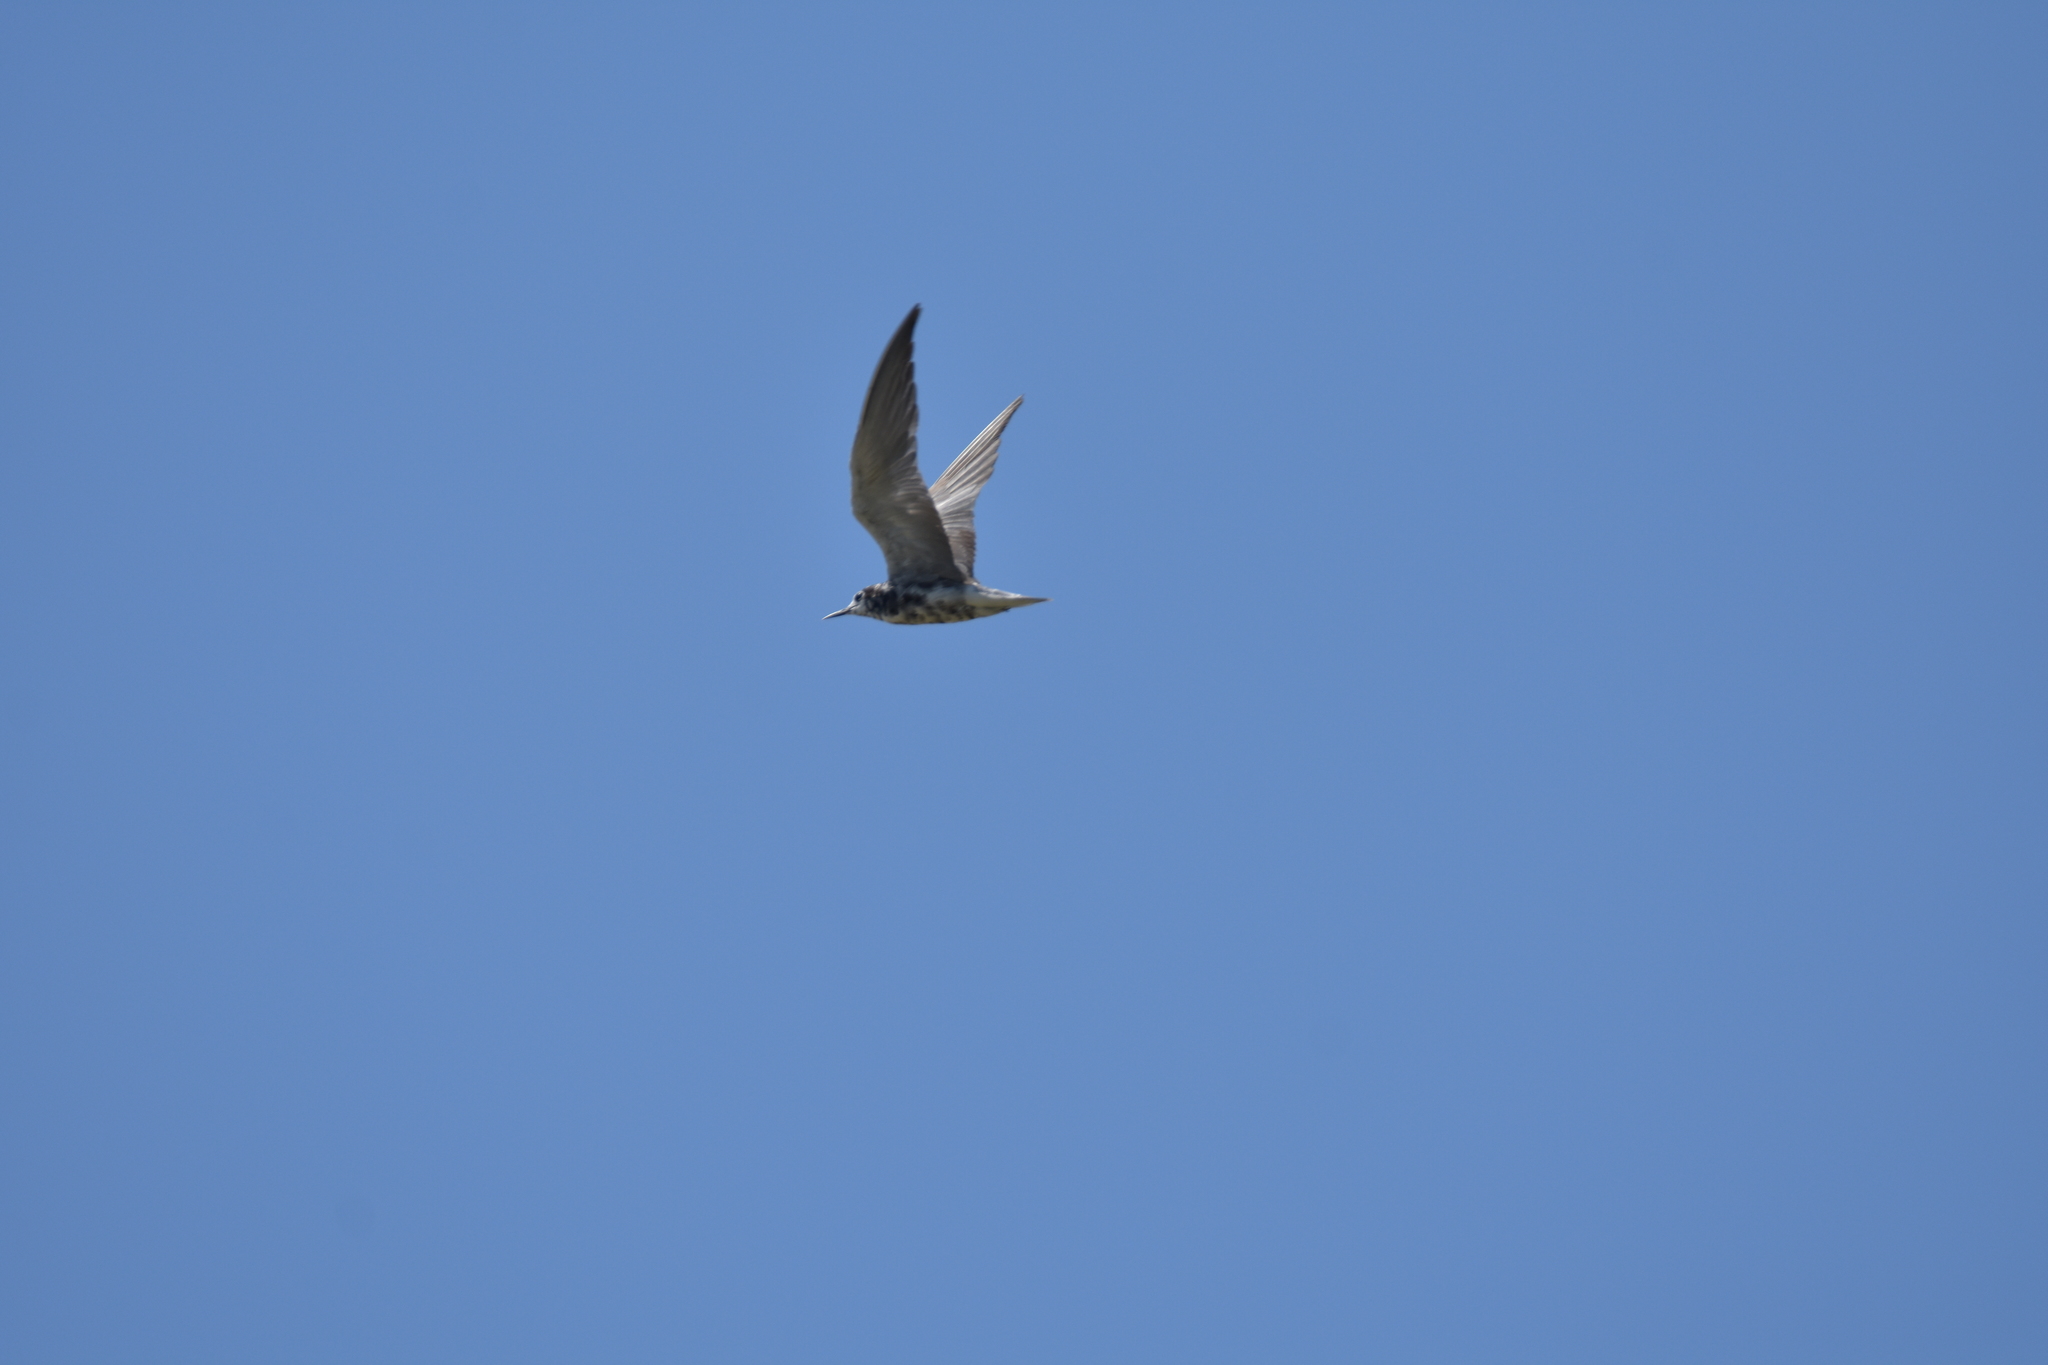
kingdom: Animalia
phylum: Chordata
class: Aves
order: Charadriiformes
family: Laridae
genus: Chlidonias
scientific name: Chlidonias niger
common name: Black tern
